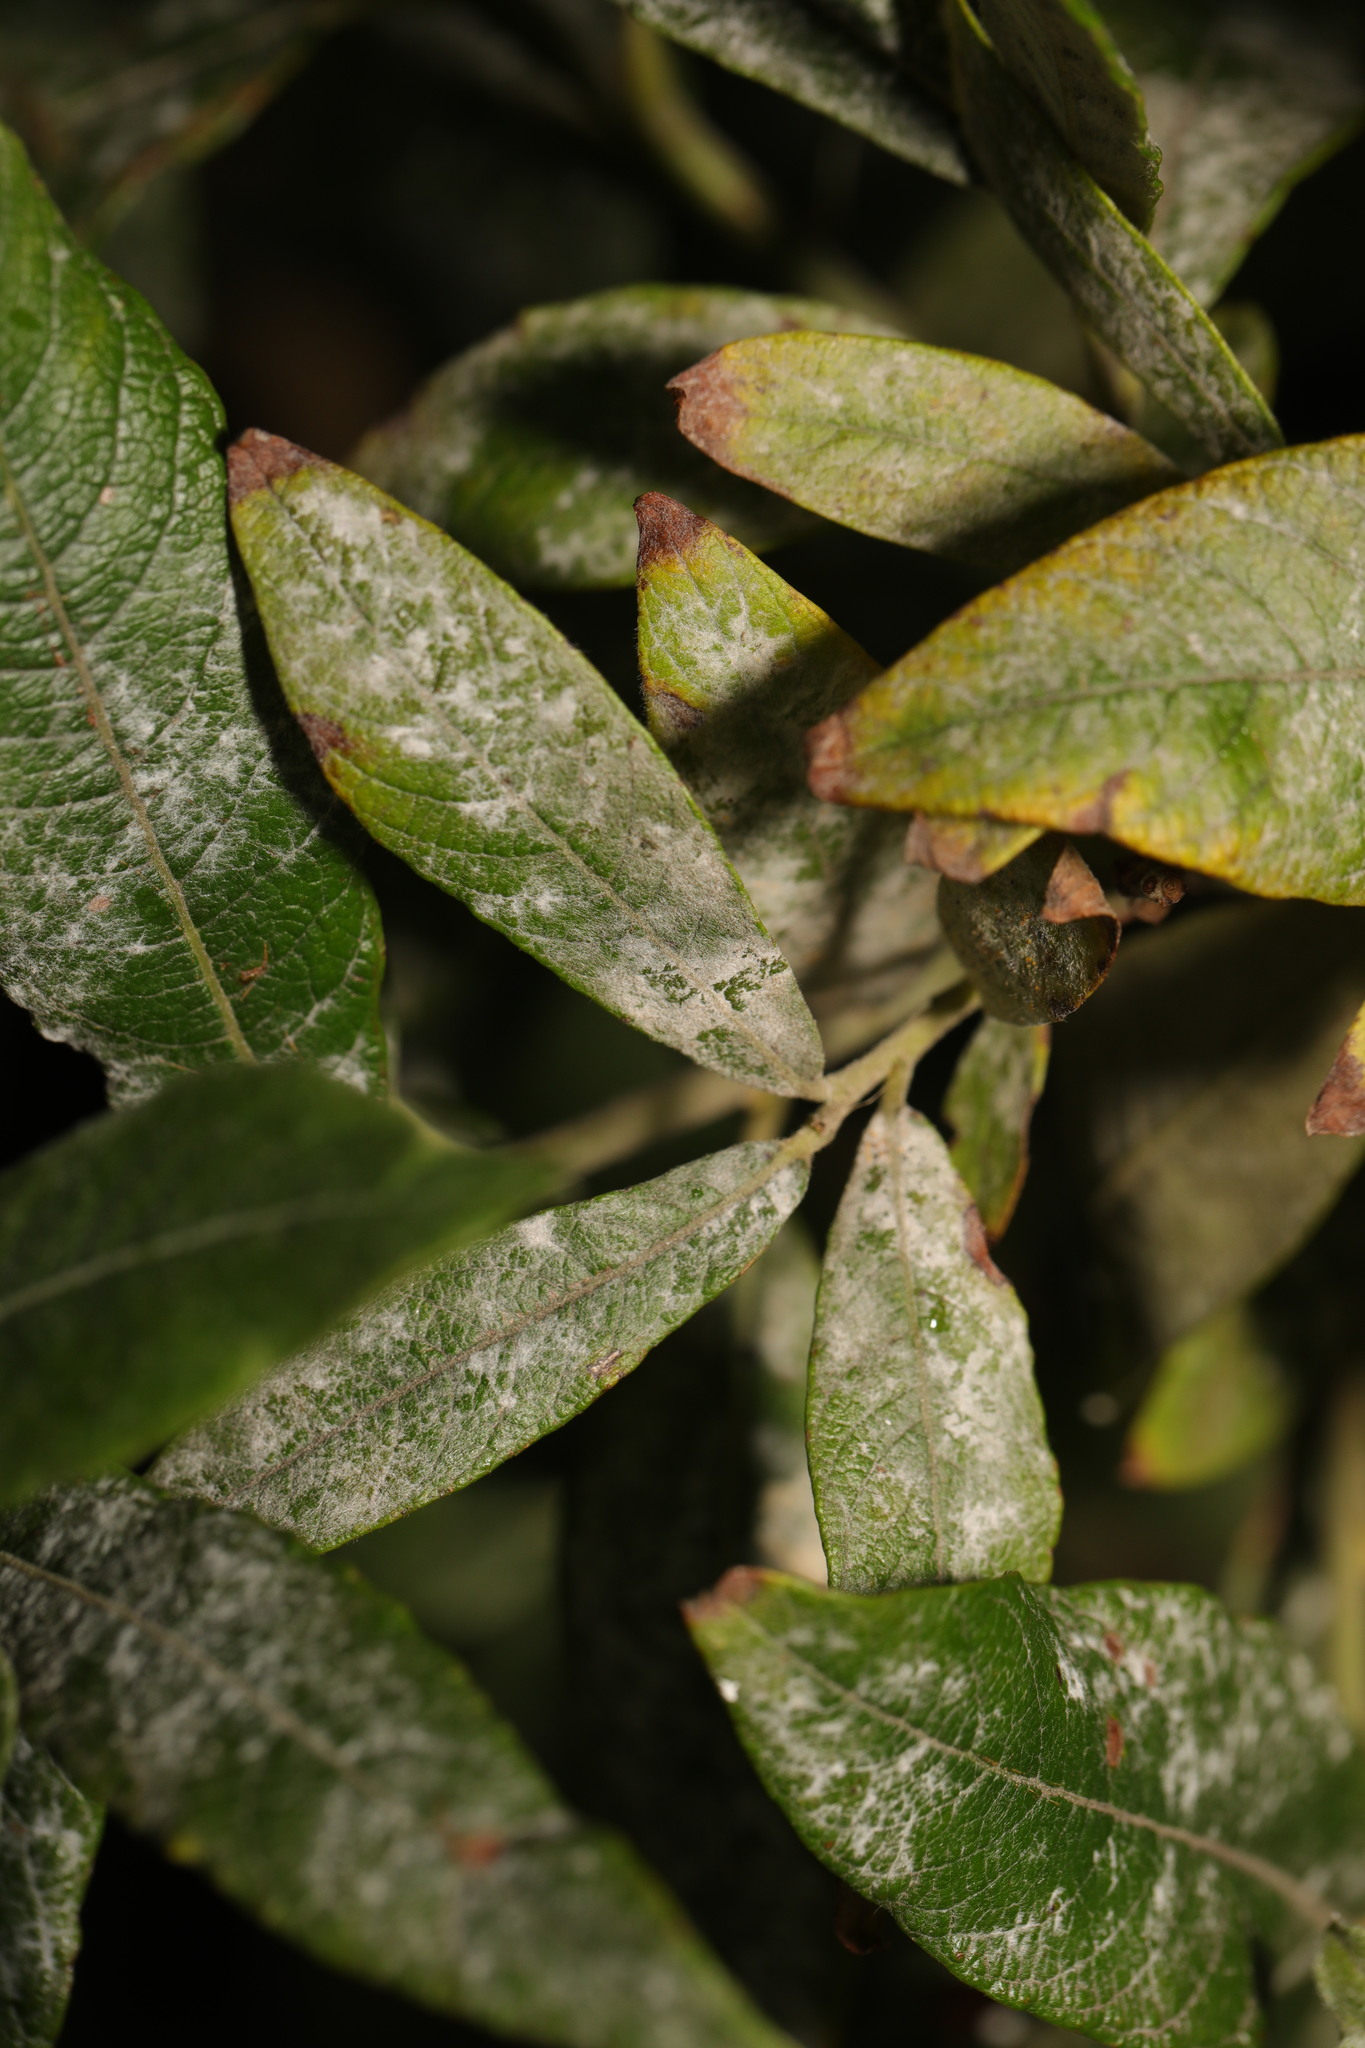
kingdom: Fungi
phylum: Ascomycota
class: Leotiomycetes
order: Helotiales
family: Erysiphaceae
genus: Erysiphe
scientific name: Erysiphe capreae
